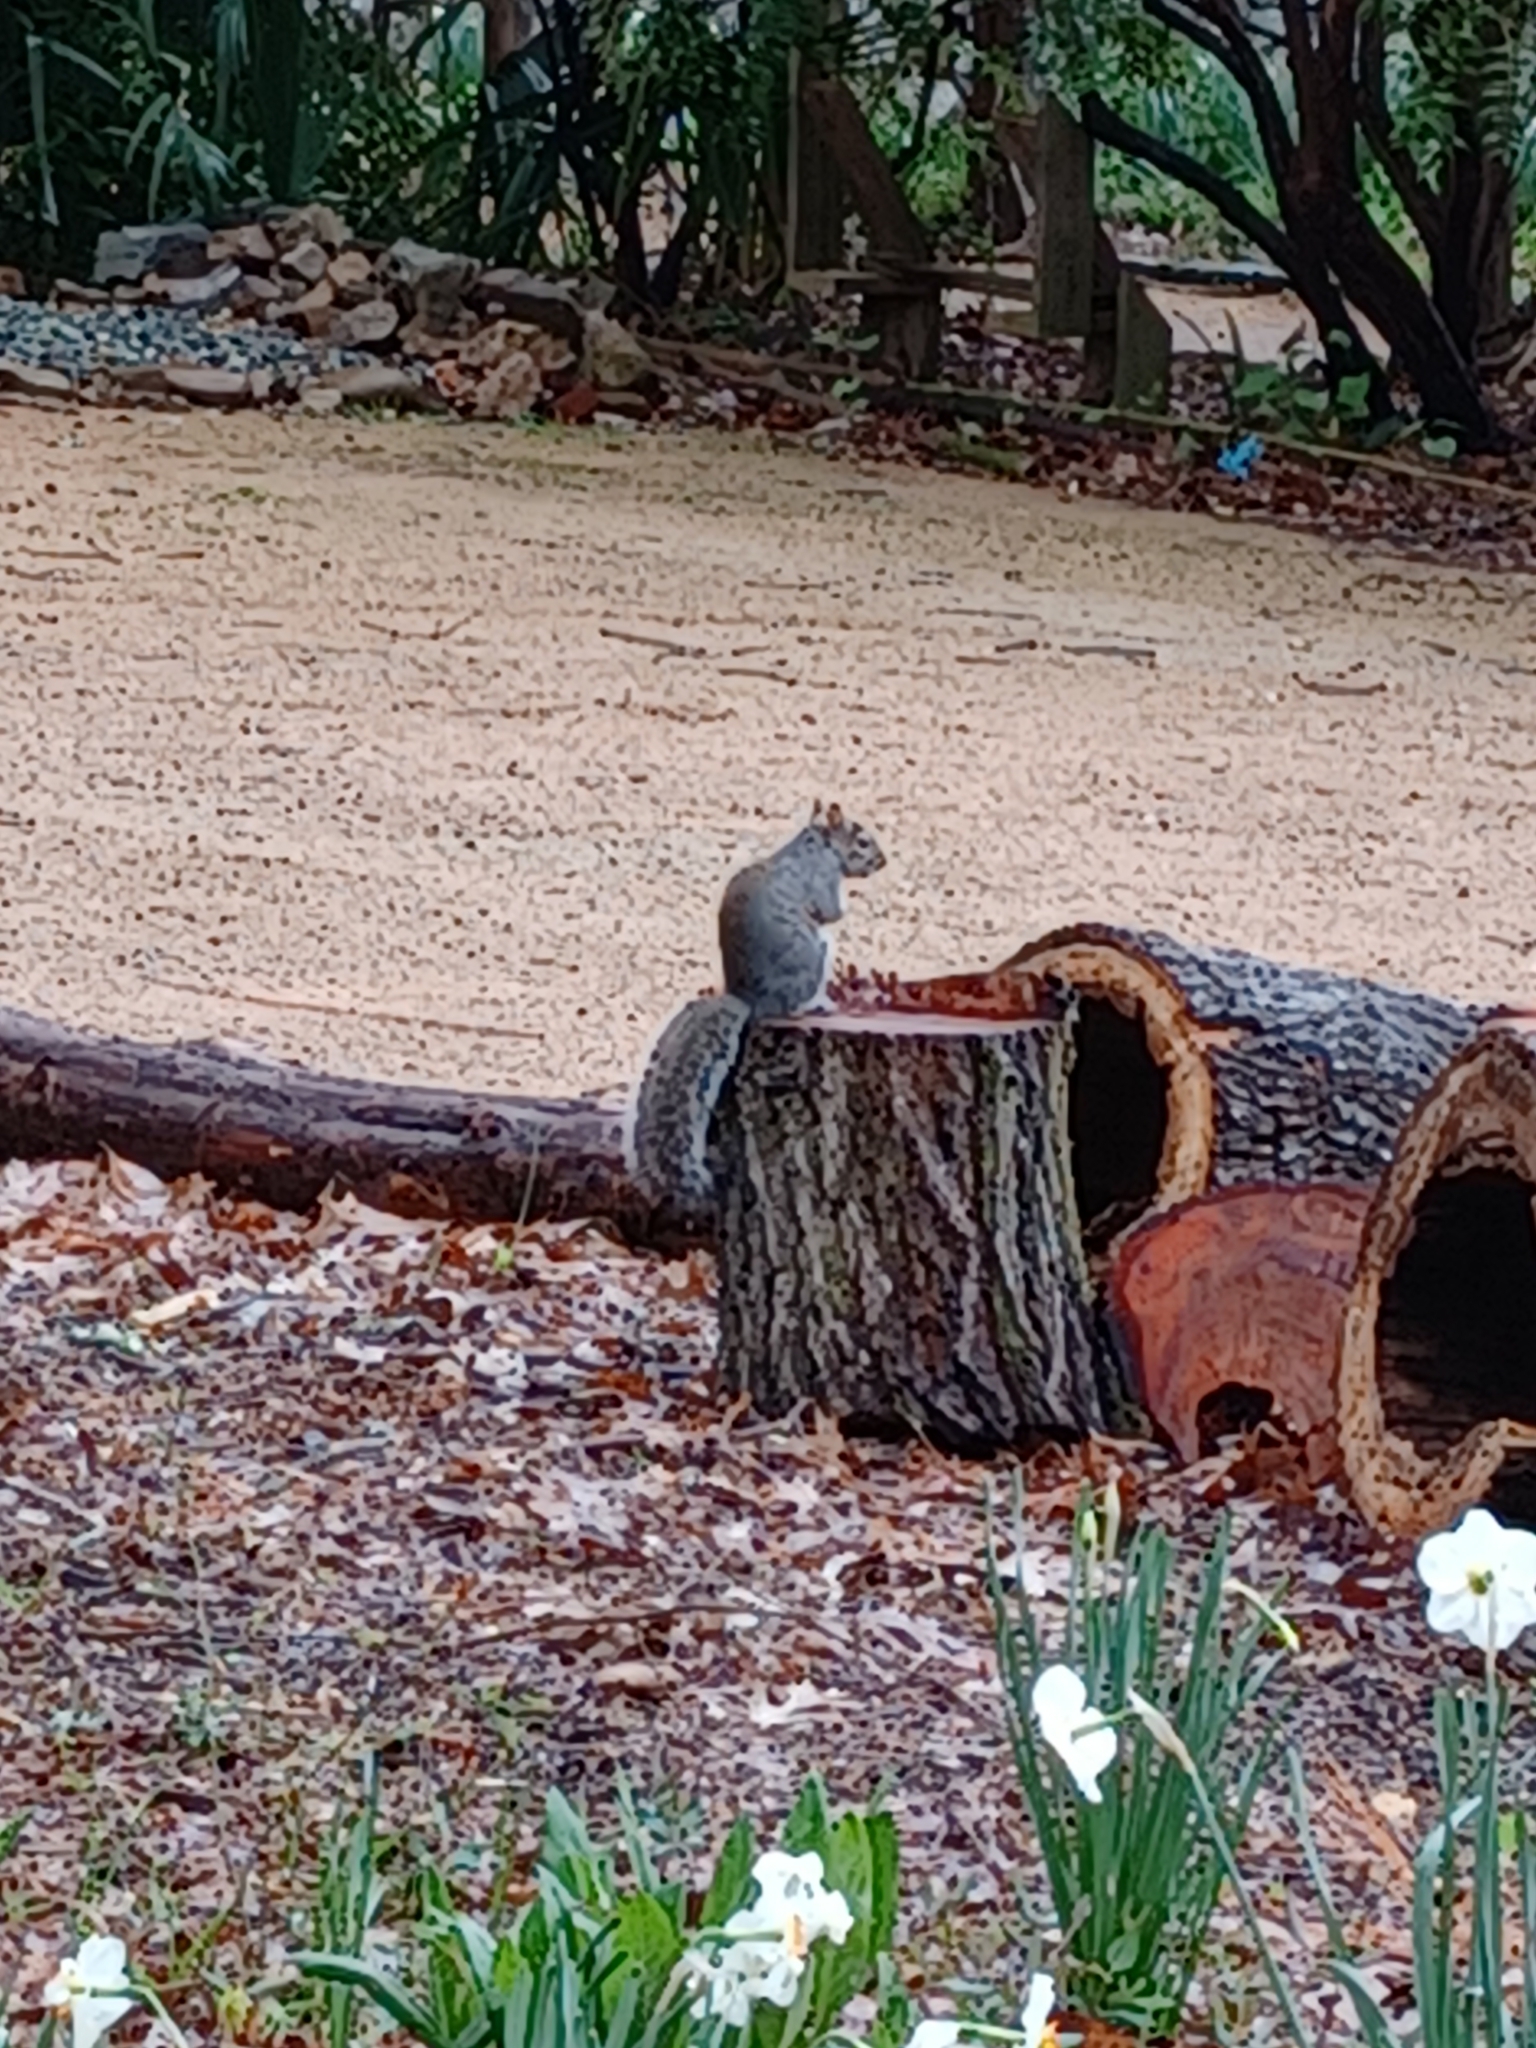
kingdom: Animalia
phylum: Chordata
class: Mammalia
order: Rodentia
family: Sciuridae
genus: Sciurus
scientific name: Sciurus carolinensis
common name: Eastern gray squirrel
